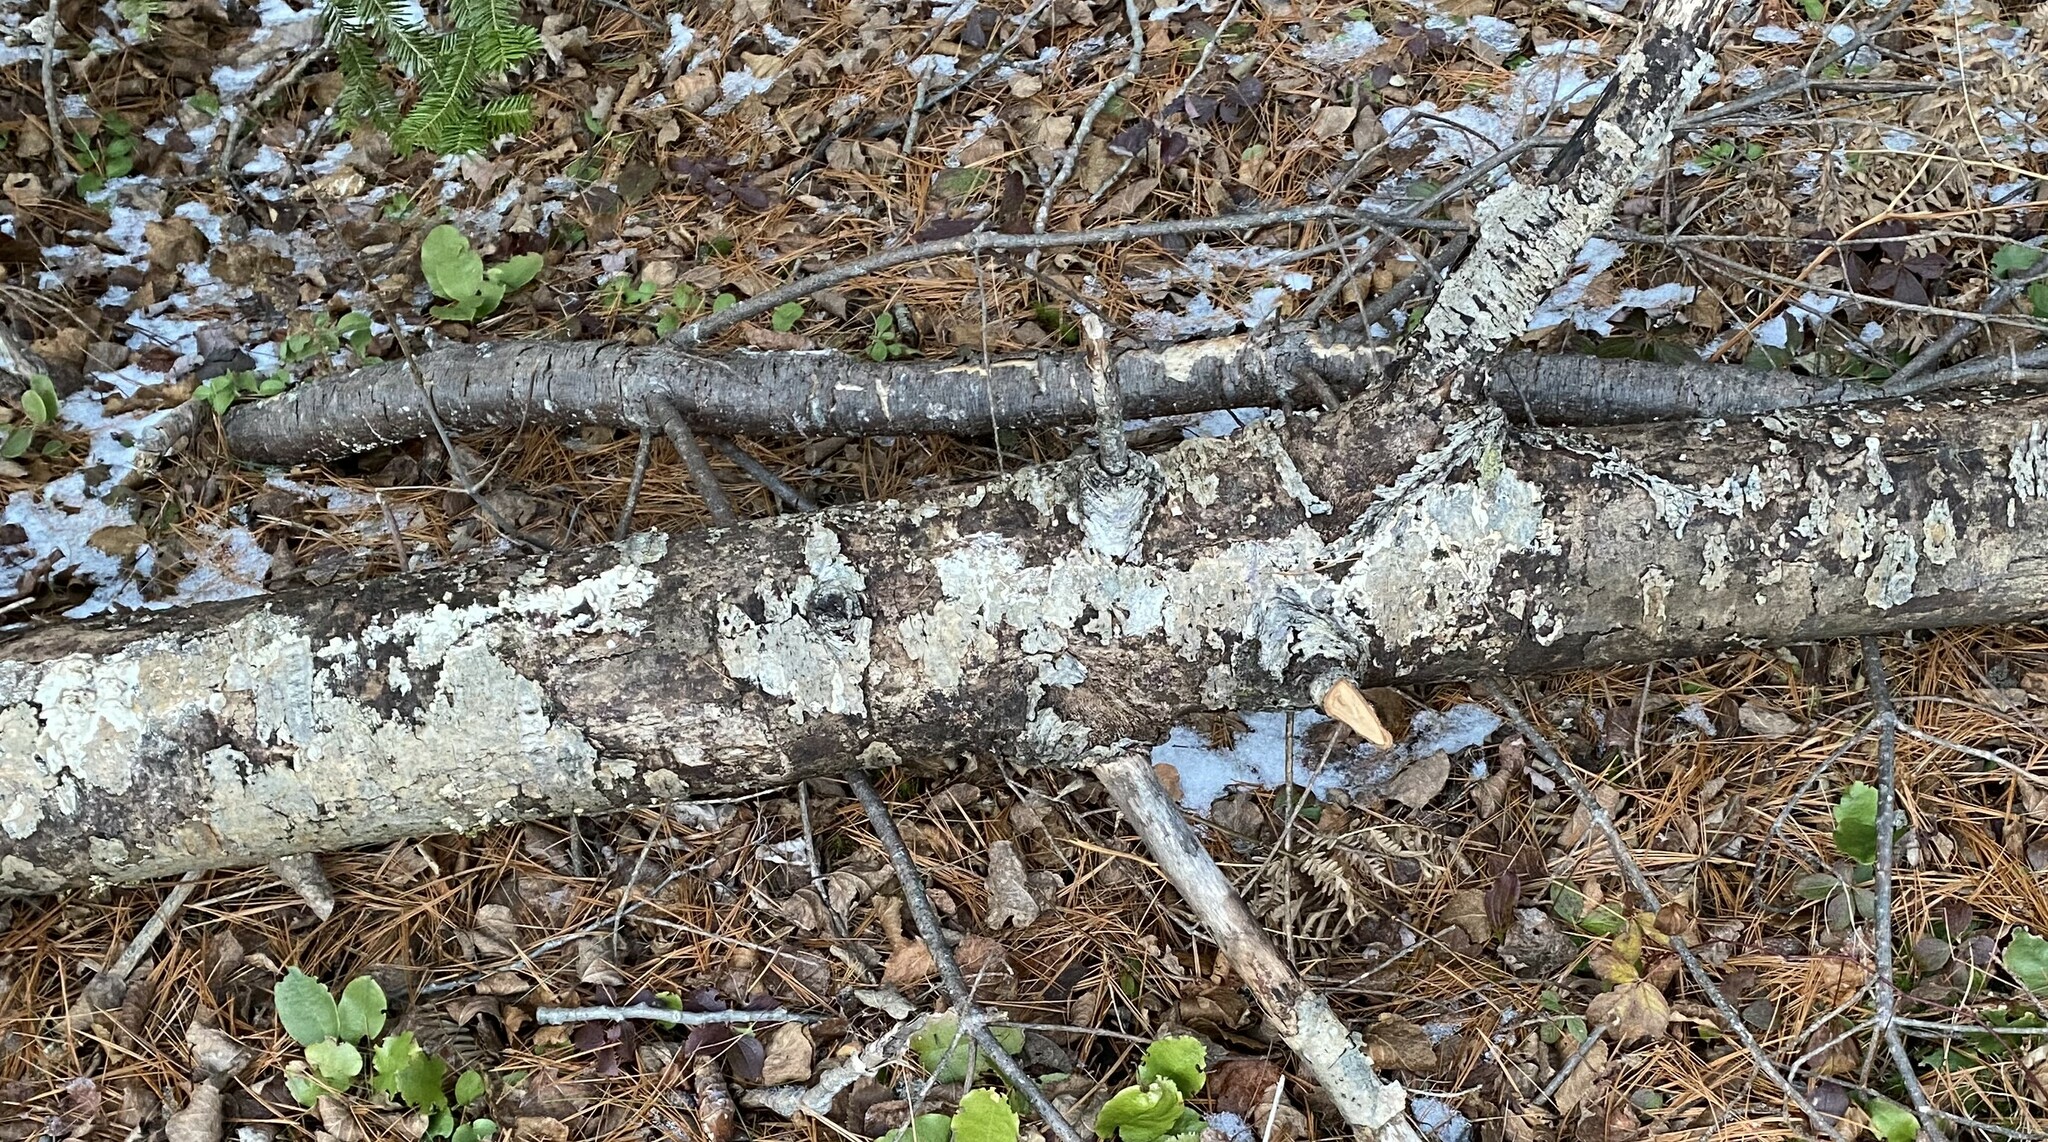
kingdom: Fungi
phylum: Basidiomycota
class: Agaricomycetes
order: Hymenochaetales
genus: Trichaptum
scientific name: Trichaptum abietinum
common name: Purplepore bracket
